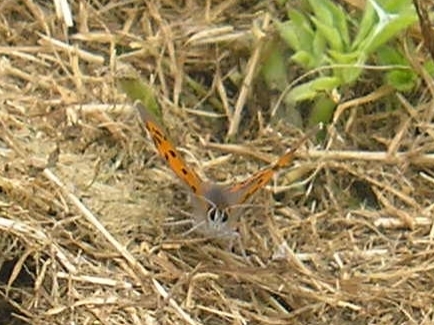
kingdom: Animalia
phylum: Arthropoda
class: Insecta
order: Lepidoptera
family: Lycaenidae
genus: Lycaena
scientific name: Lycaena phlaeas
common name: Small copper
